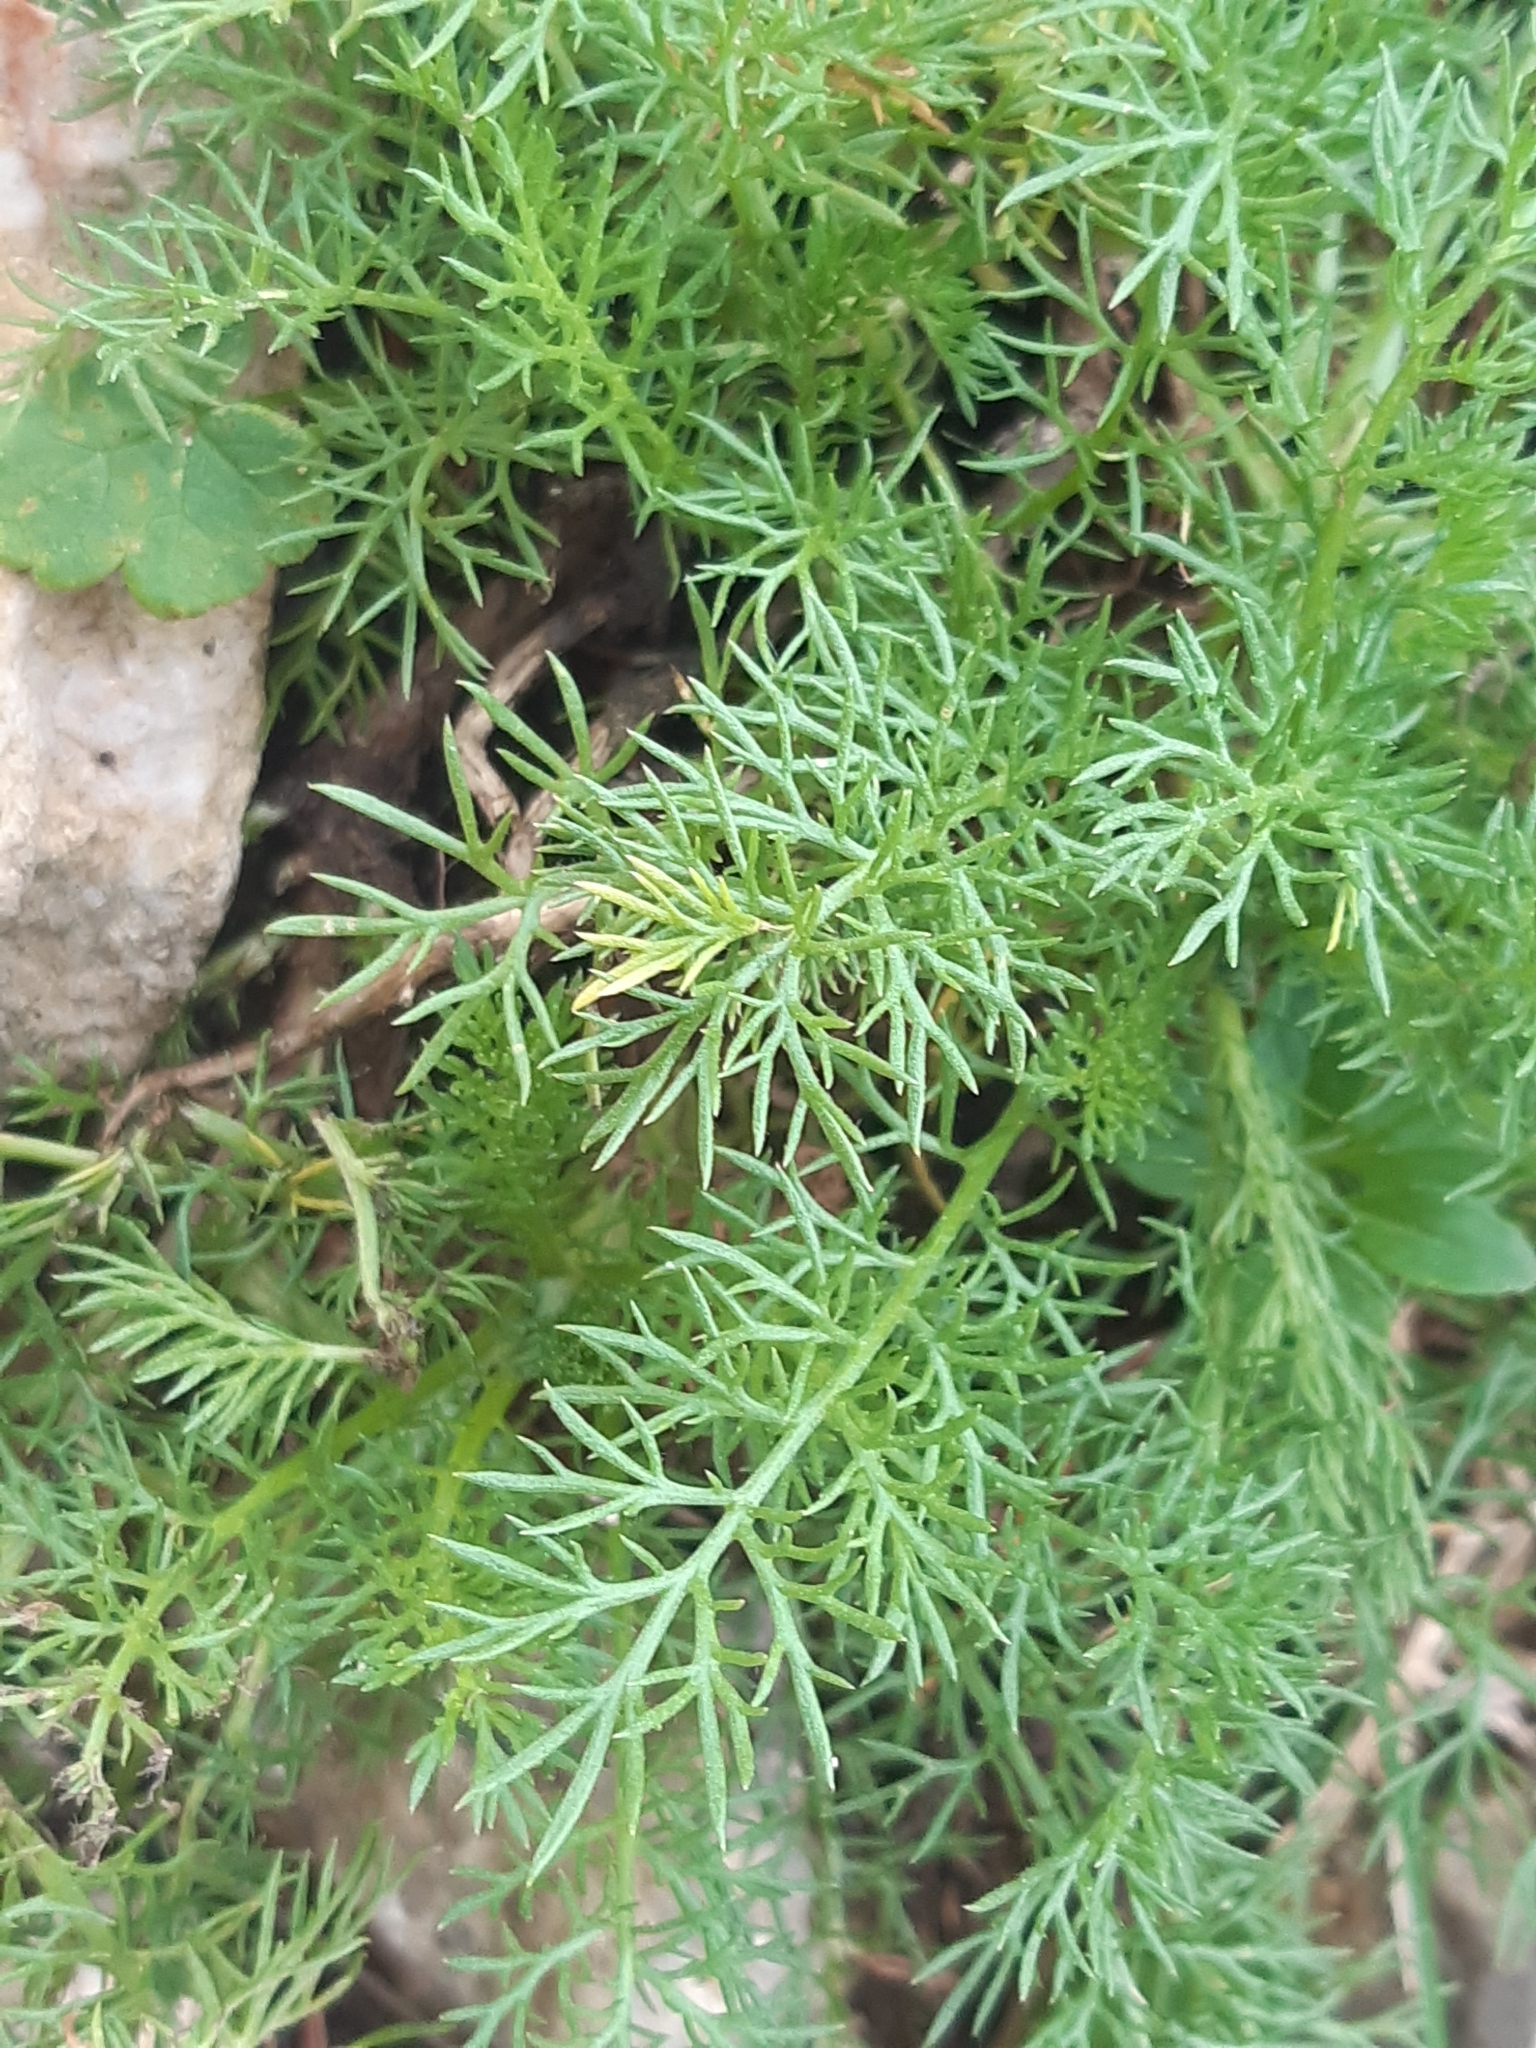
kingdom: Plantae
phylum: Tracheophyta
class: Magnoliopsida
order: Asterales
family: Asteraceae
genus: Achillea
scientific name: Achillea clusiana
